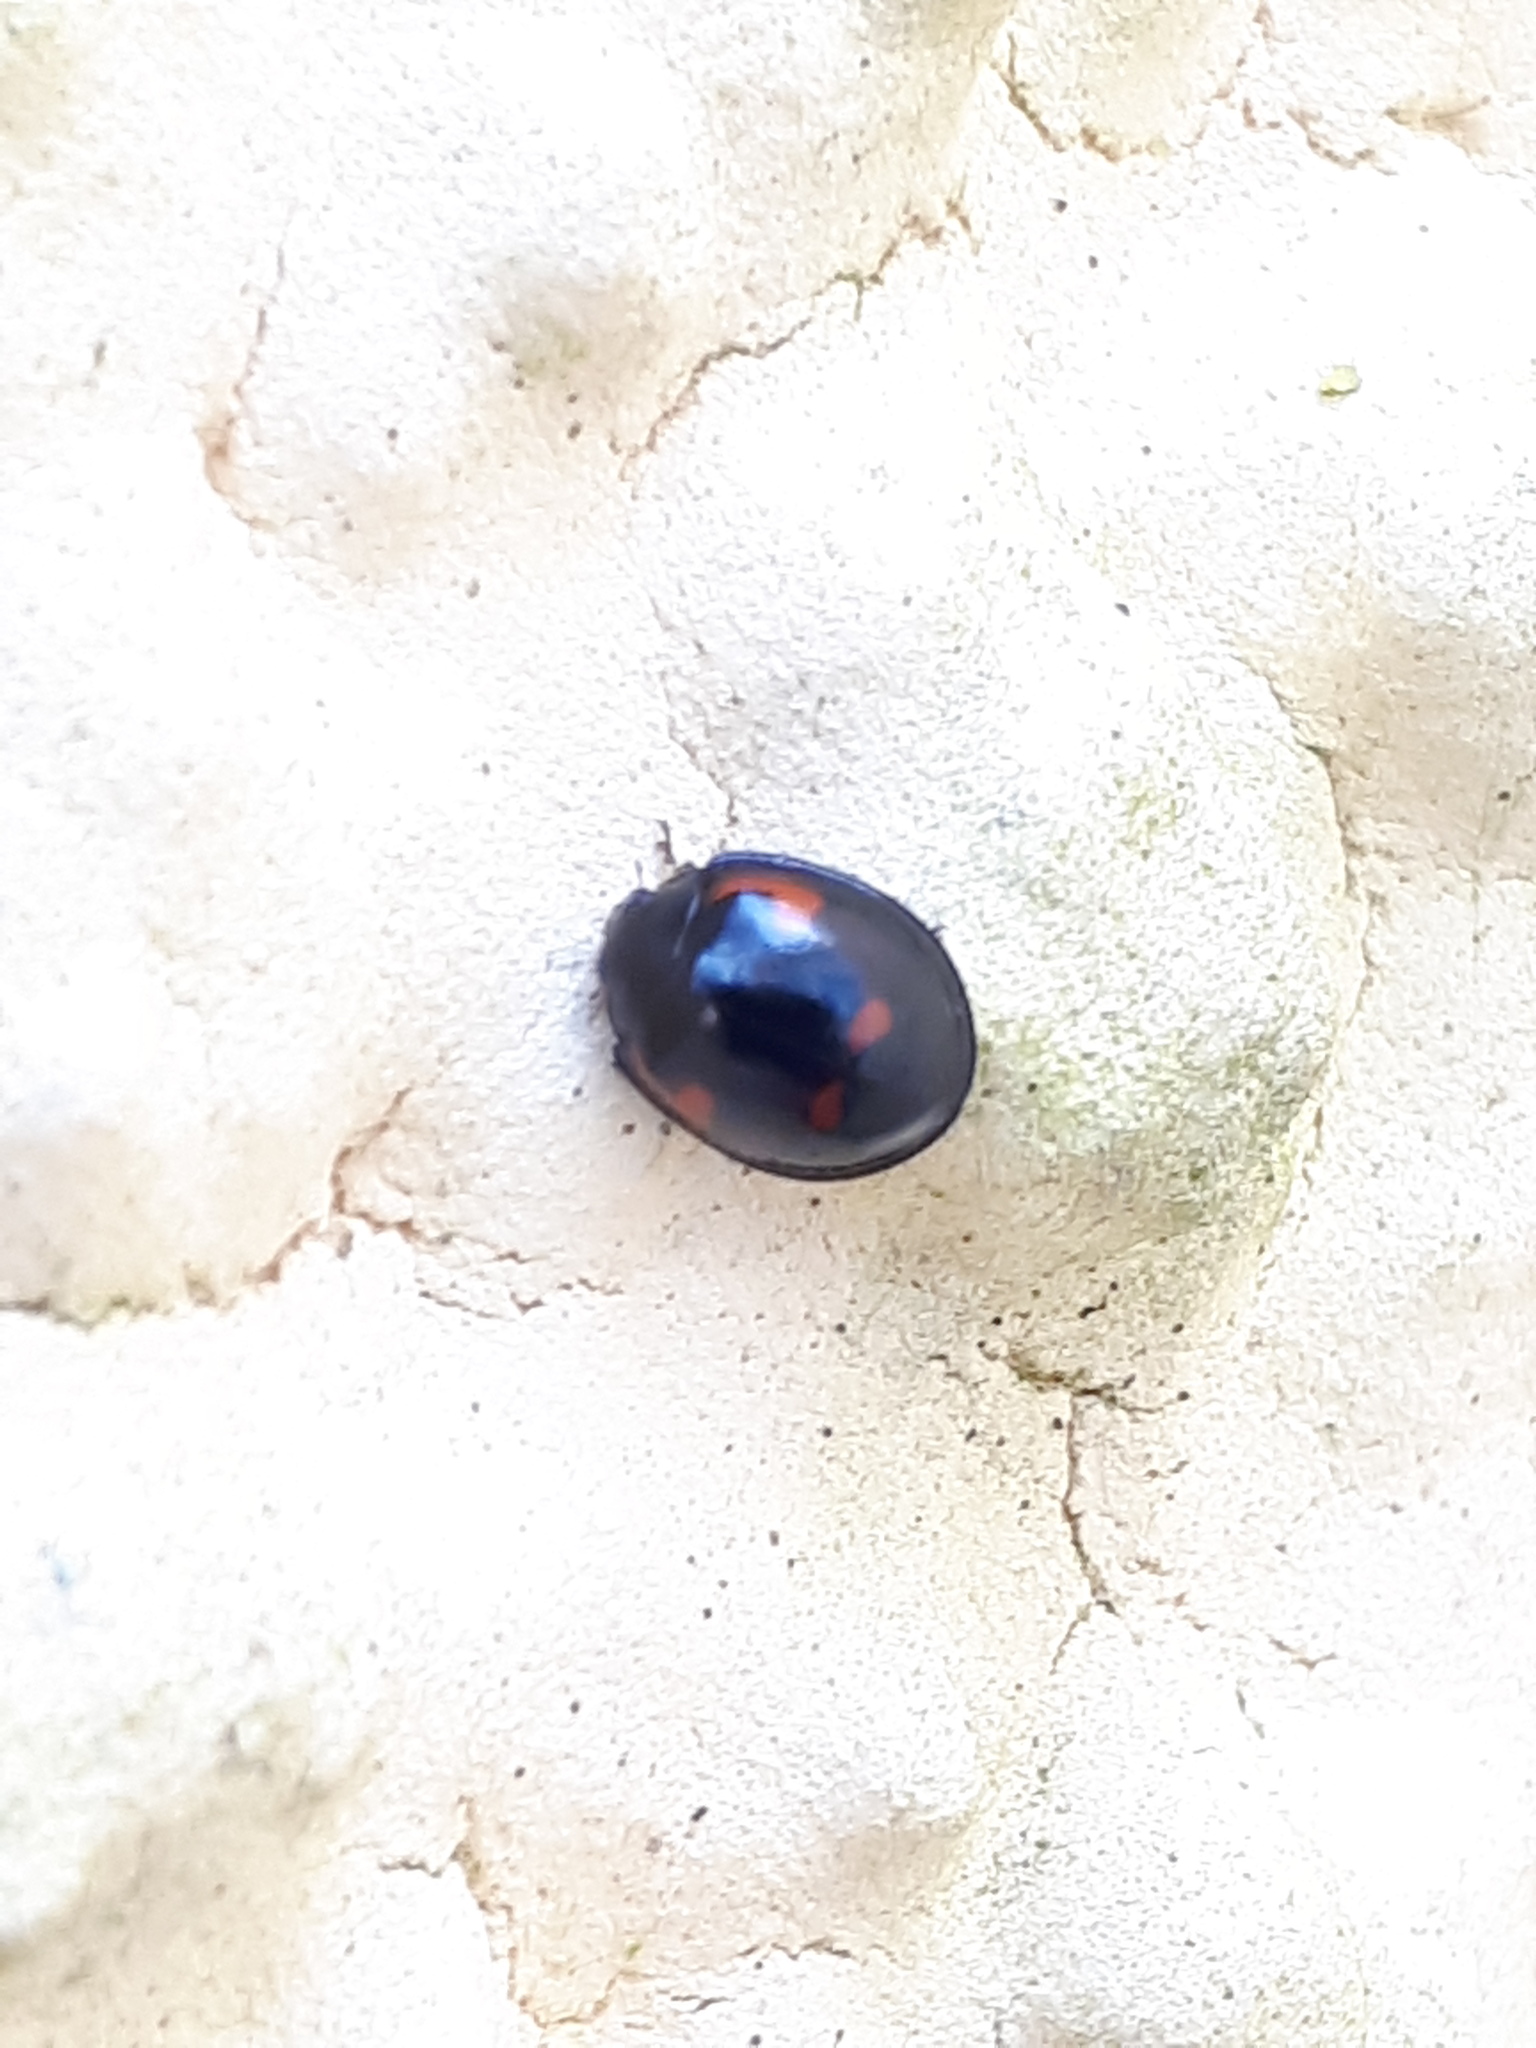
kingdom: Animalia
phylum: Arthropoda
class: Insecta
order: Coleoptera
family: Coccinellidae
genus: Brumus
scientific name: Brumus quadripustulatus
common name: Ladybird beetle
